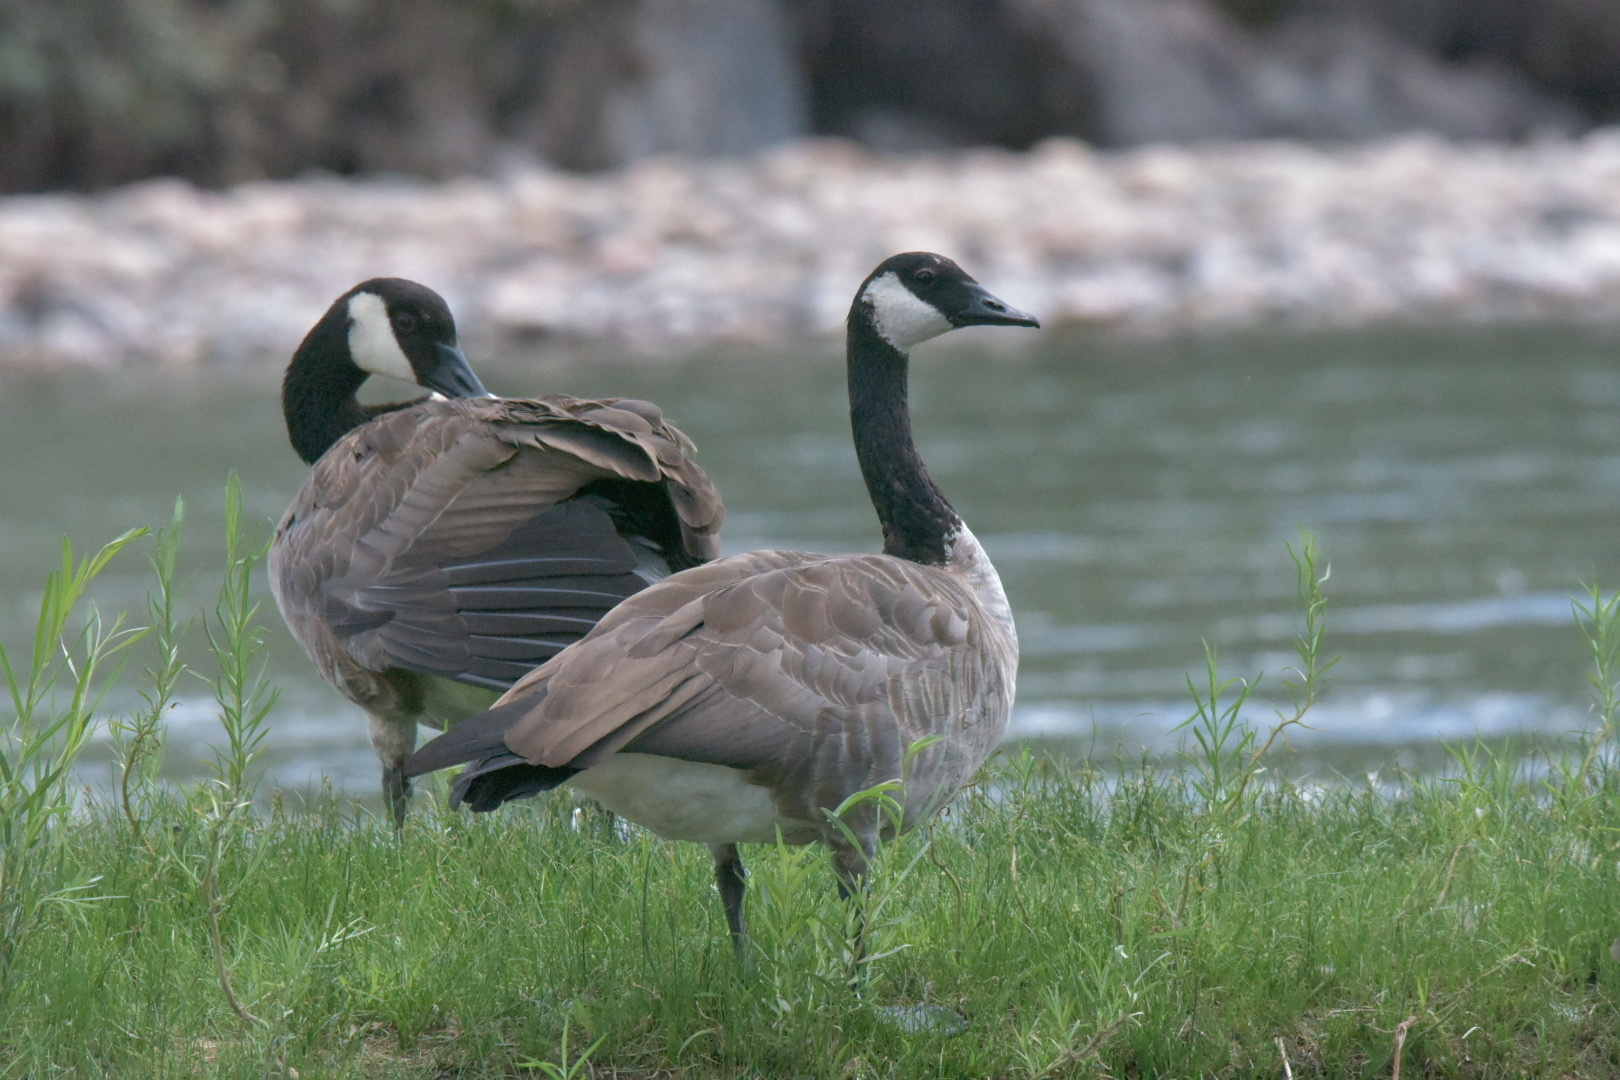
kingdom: Animalia
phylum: Chordata
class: Aves
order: Anseriformes
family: Anatidae
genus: Branta
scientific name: Branta canadensis
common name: Canada goose
